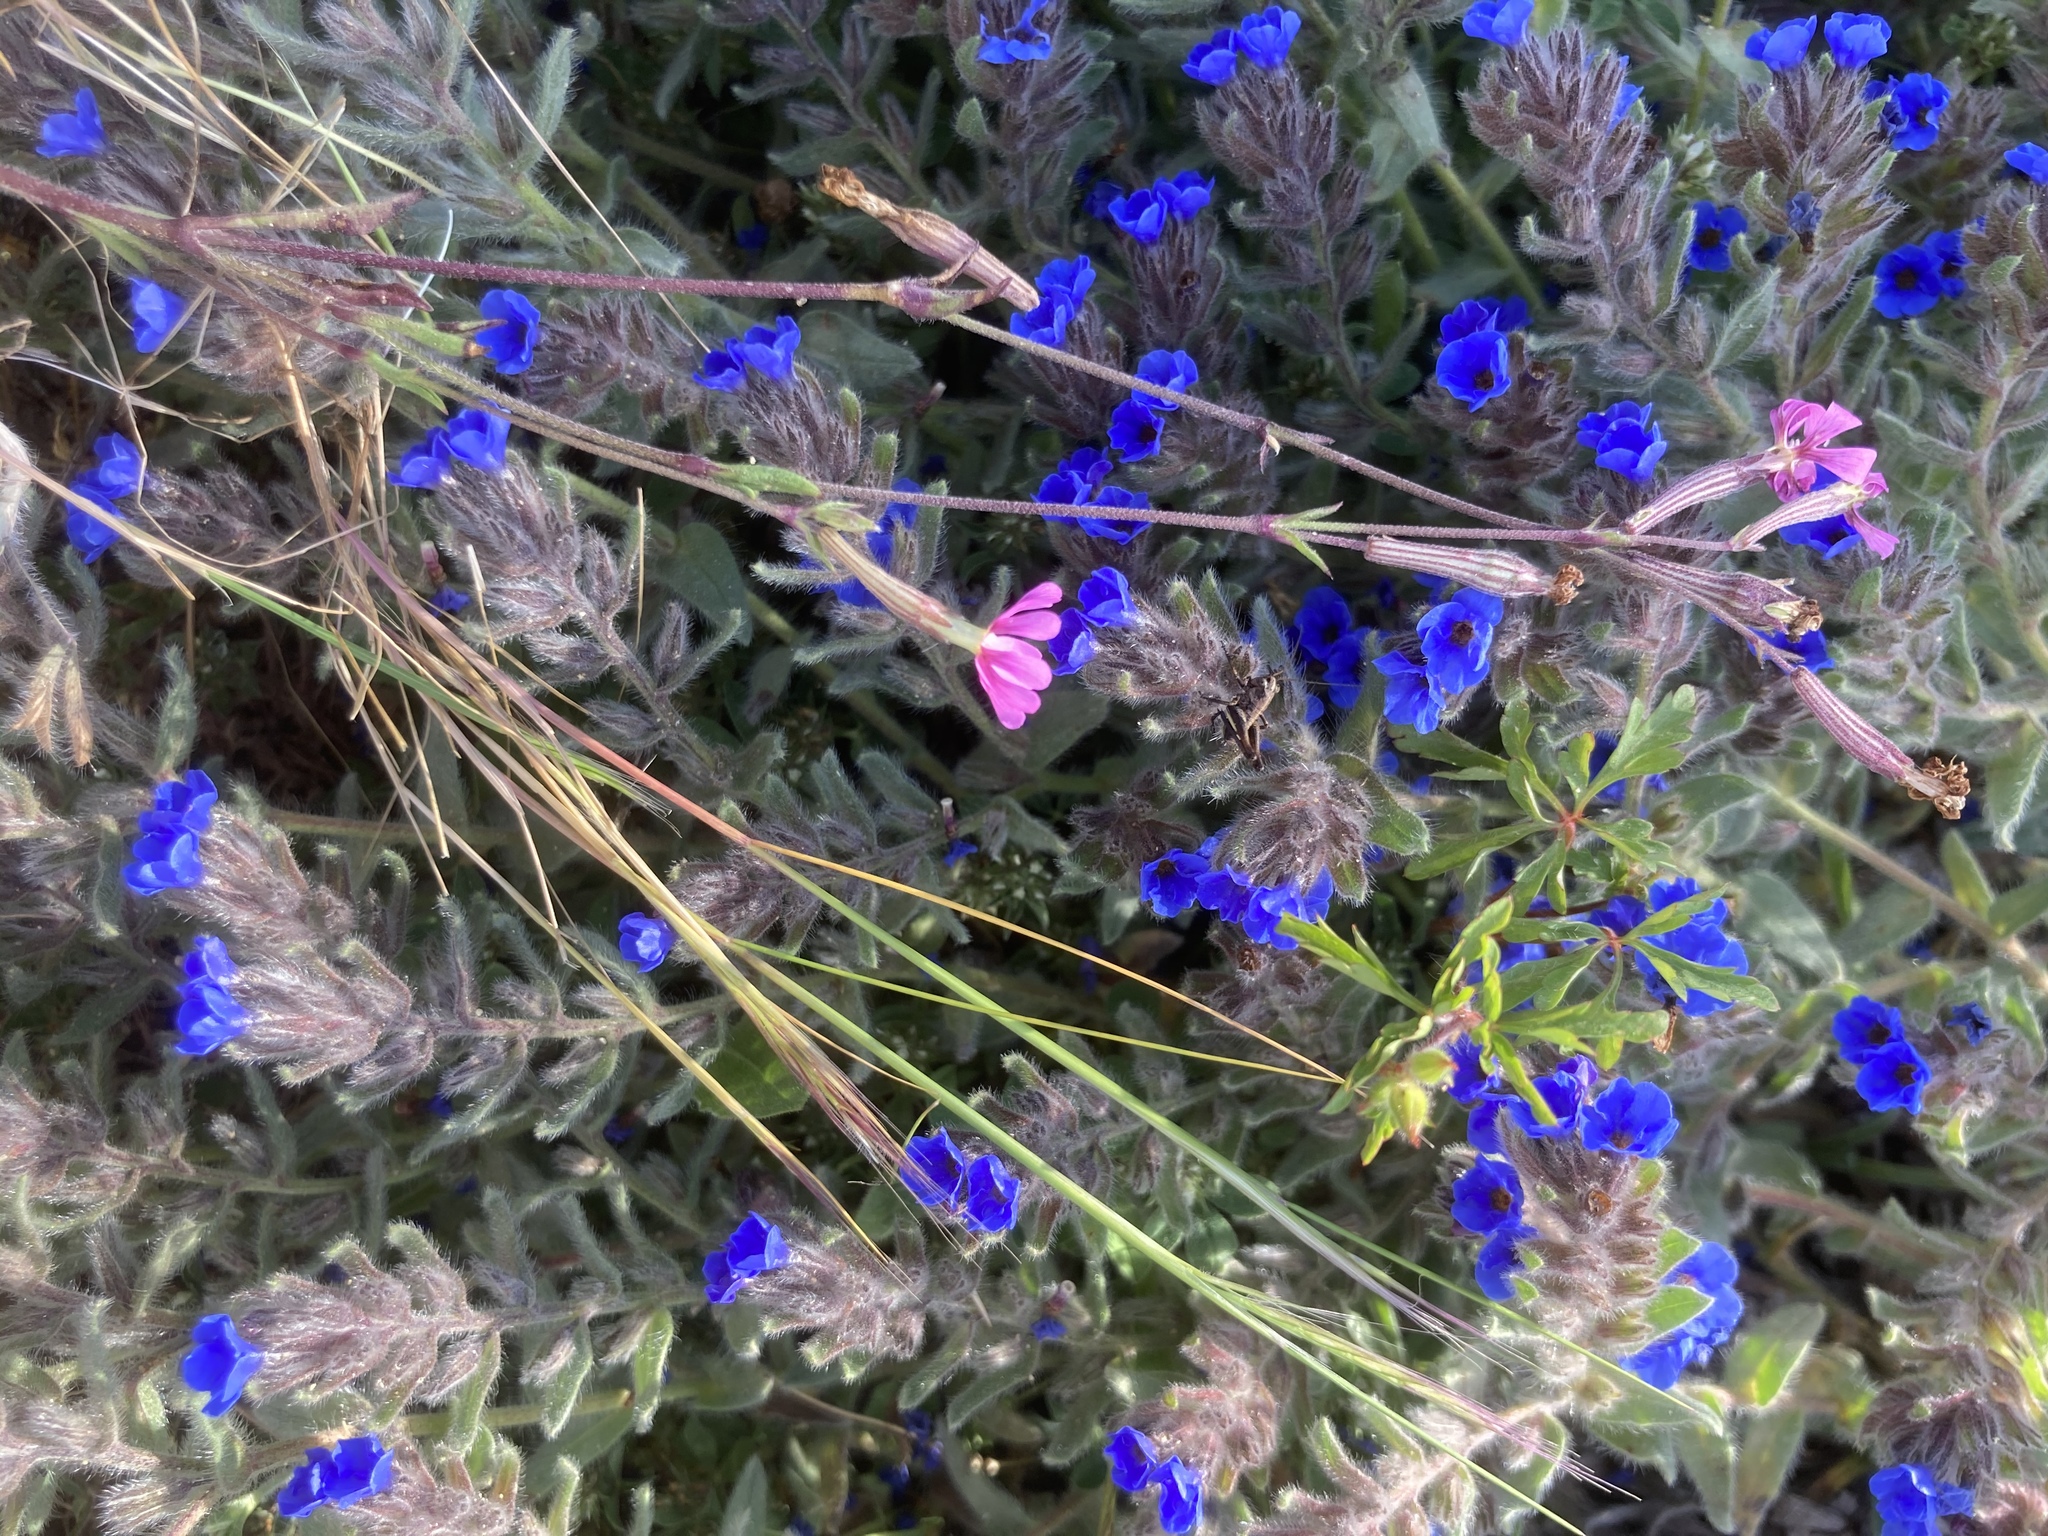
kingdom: Plantae
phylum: Tracheophyta
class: Magnoliopsida
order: Caryophyllales
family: Caryophyllaceae
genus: Silene
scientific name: Silene colorata
